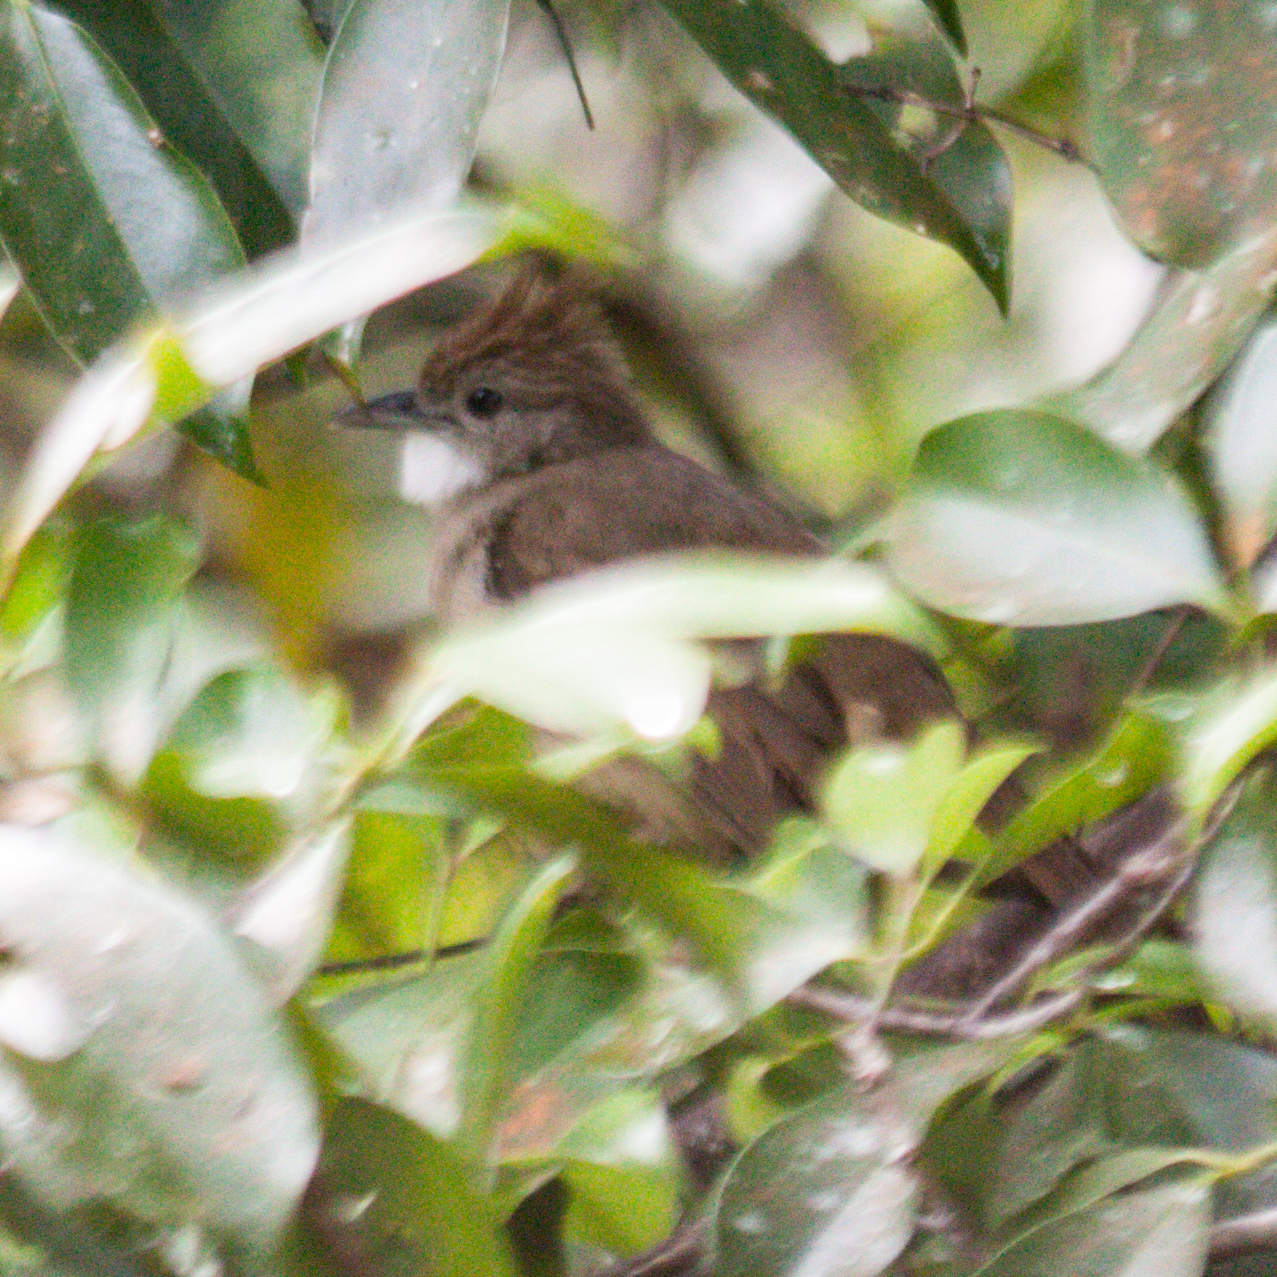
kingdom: Animalia
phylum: Chordata
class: Aves
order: Passeriformes
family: Pycnonotidae
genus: Alophoixus
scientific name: Alophoixus ochraceus
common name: Ochraceous bulbul
